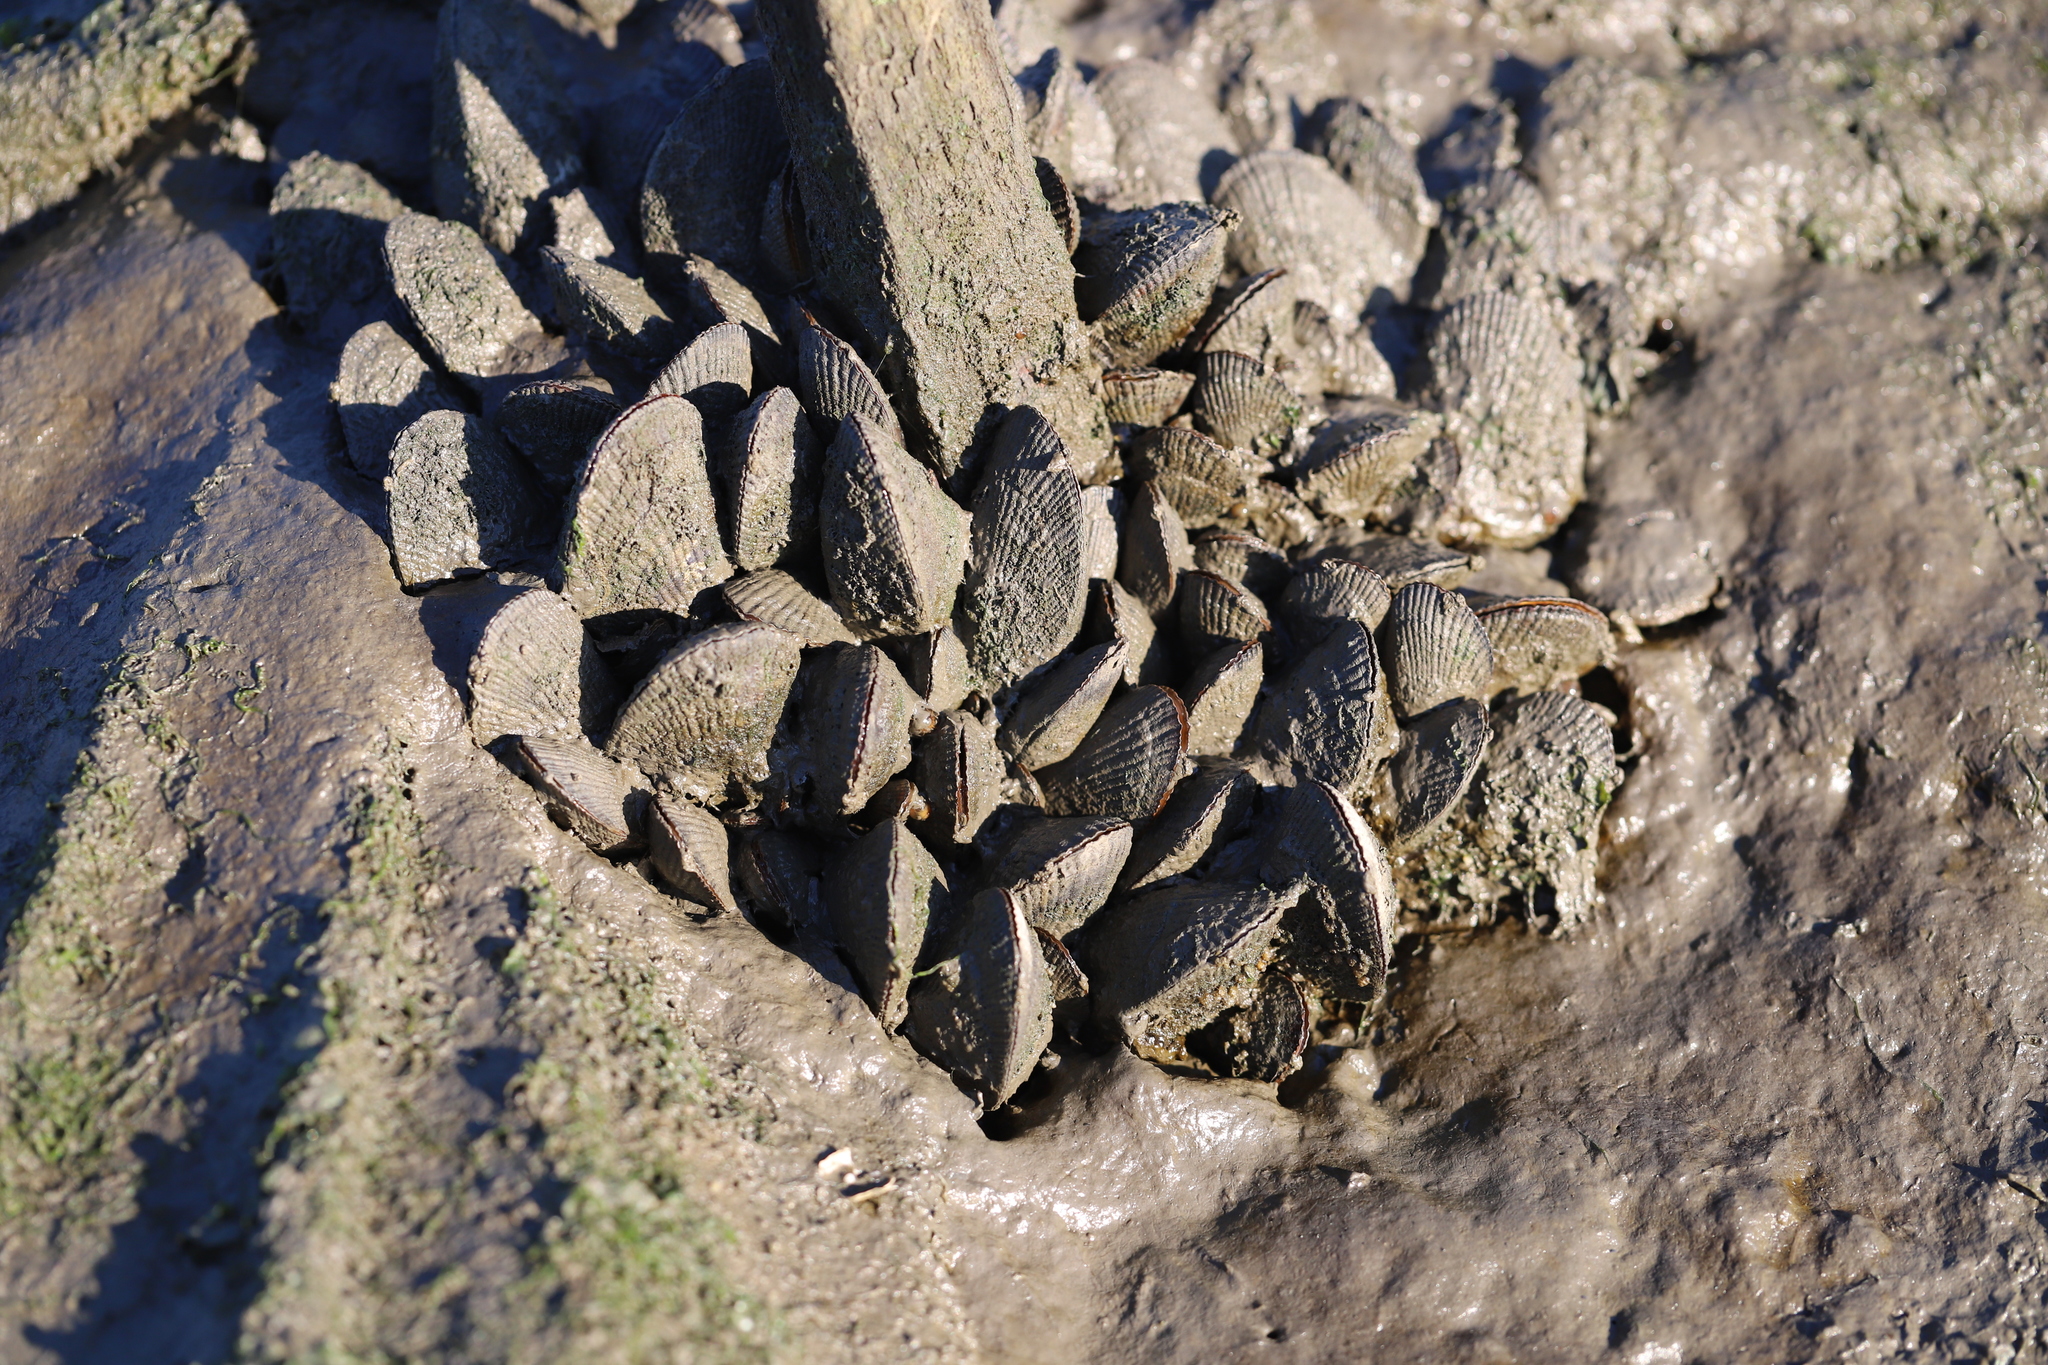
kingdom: Animalia
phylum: Mollusca
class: Bivalvia
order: Mytilida
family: Mytilidae
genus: Geukensia
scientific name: Geukensia demissa
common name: Ribbed mussel
